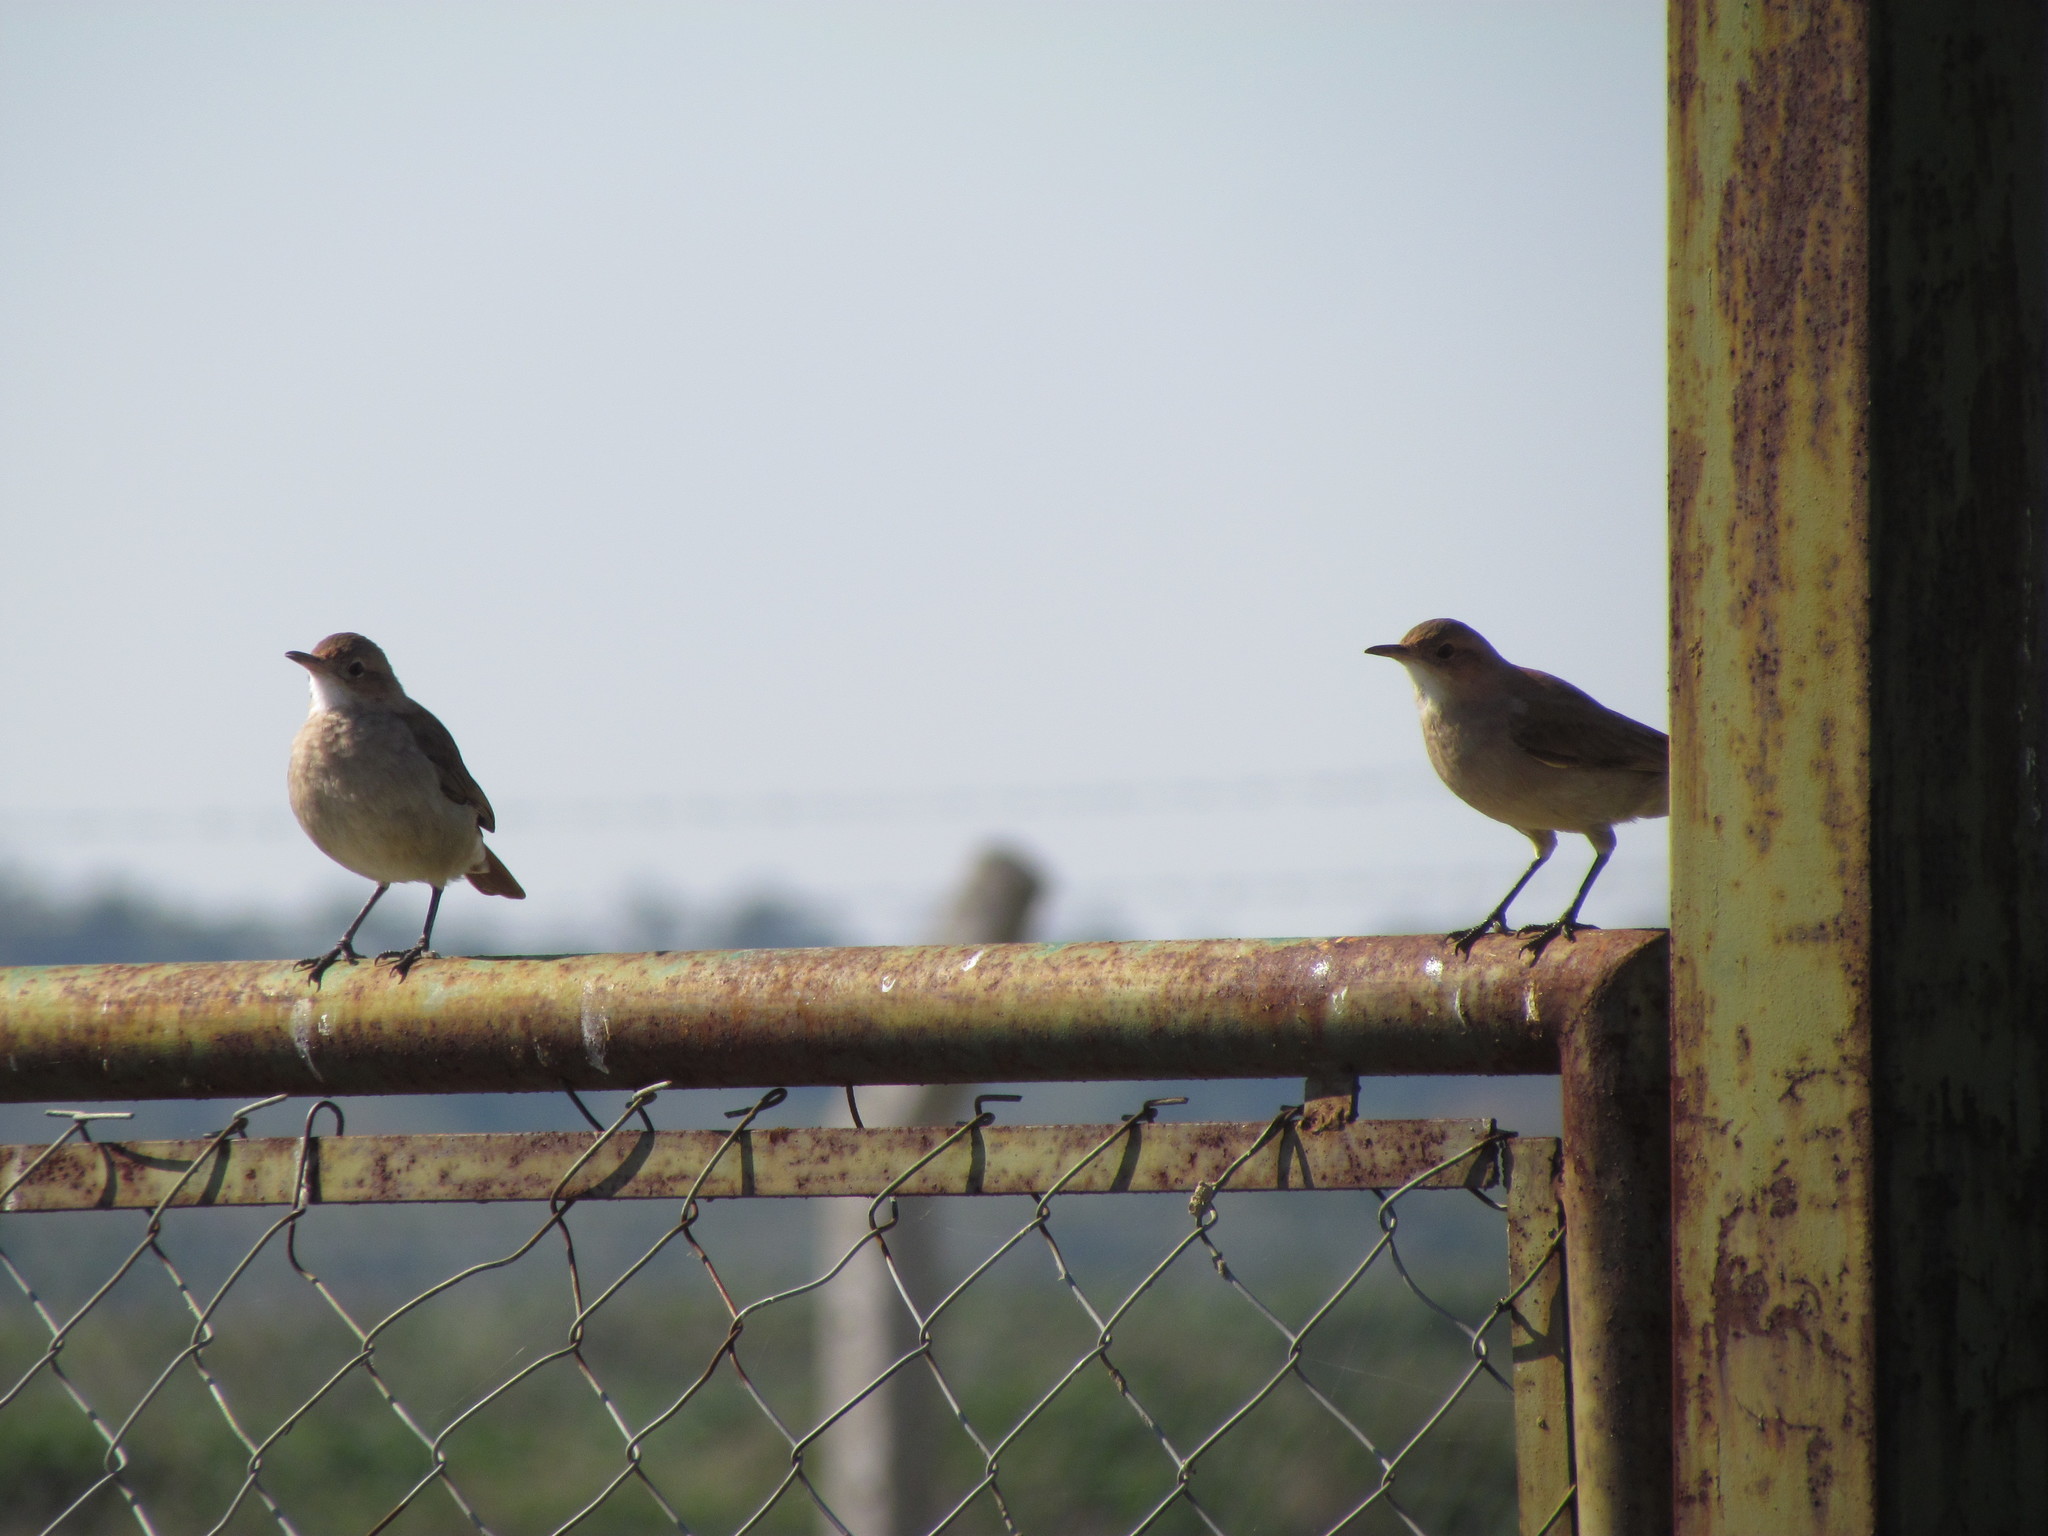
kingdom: Animalia
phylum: Chordata
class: Aves
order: Passeriformes
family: Furnariidae
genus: Furnarius
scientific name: Furnarius rufus
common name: Rufous hornero
